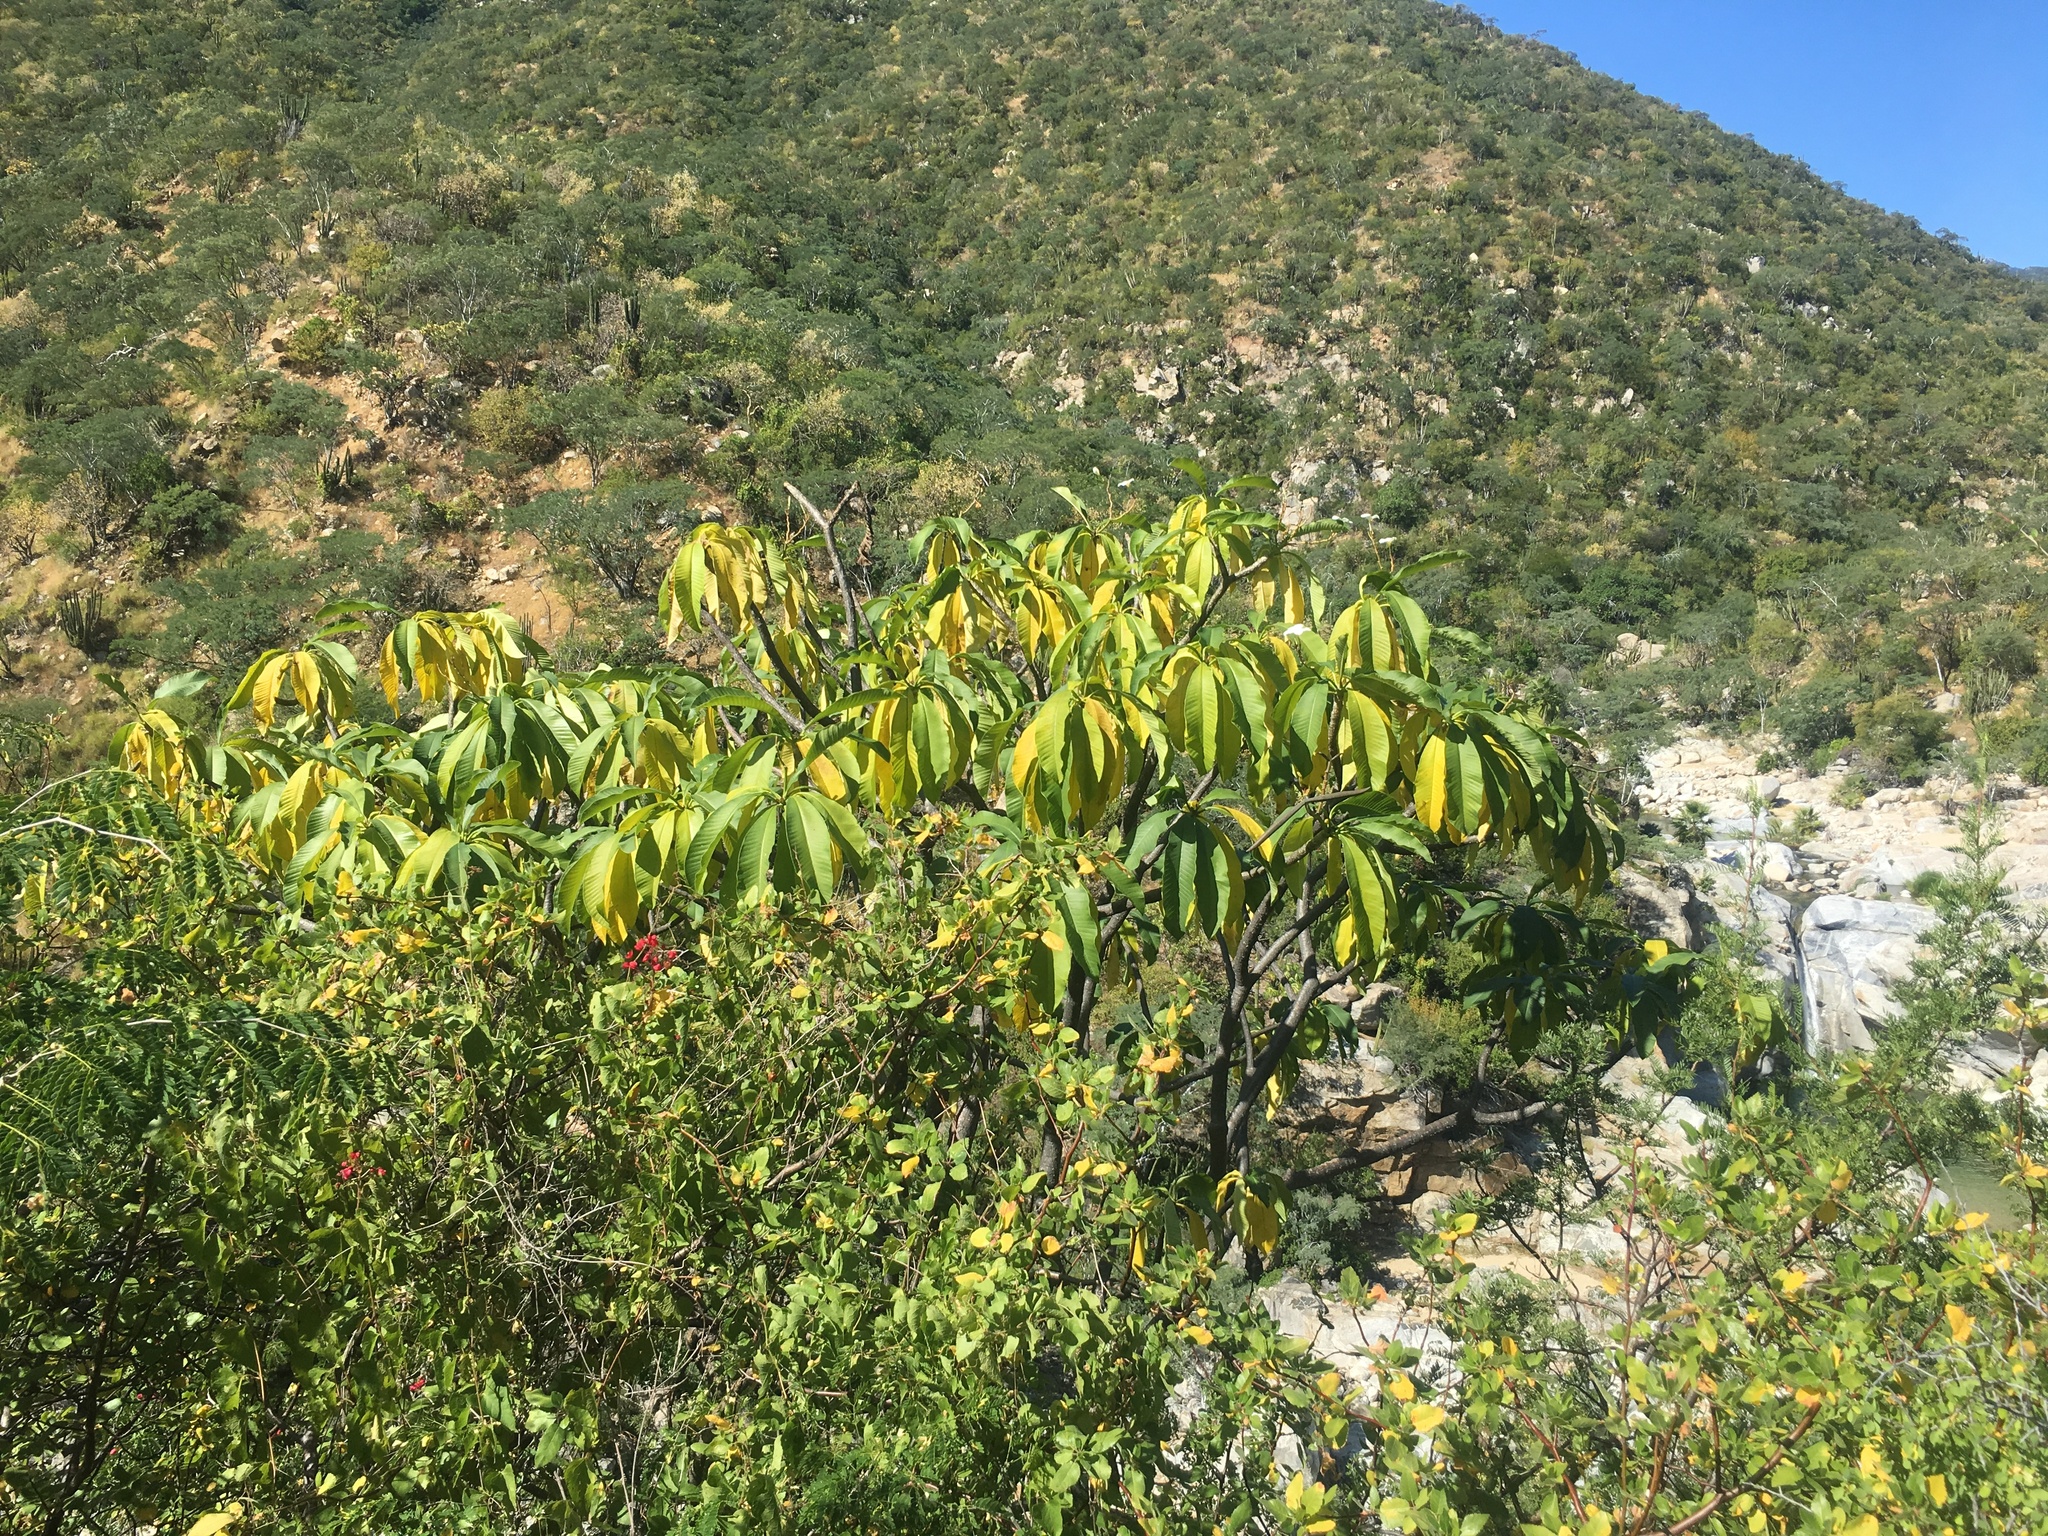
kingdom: Plantae
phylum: Tracheophyta
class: Magnoliopsida
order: Gentianales
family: Apocynaceae
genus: Plumeria
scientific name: Plumeria rubra
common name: Pagoda-tree
